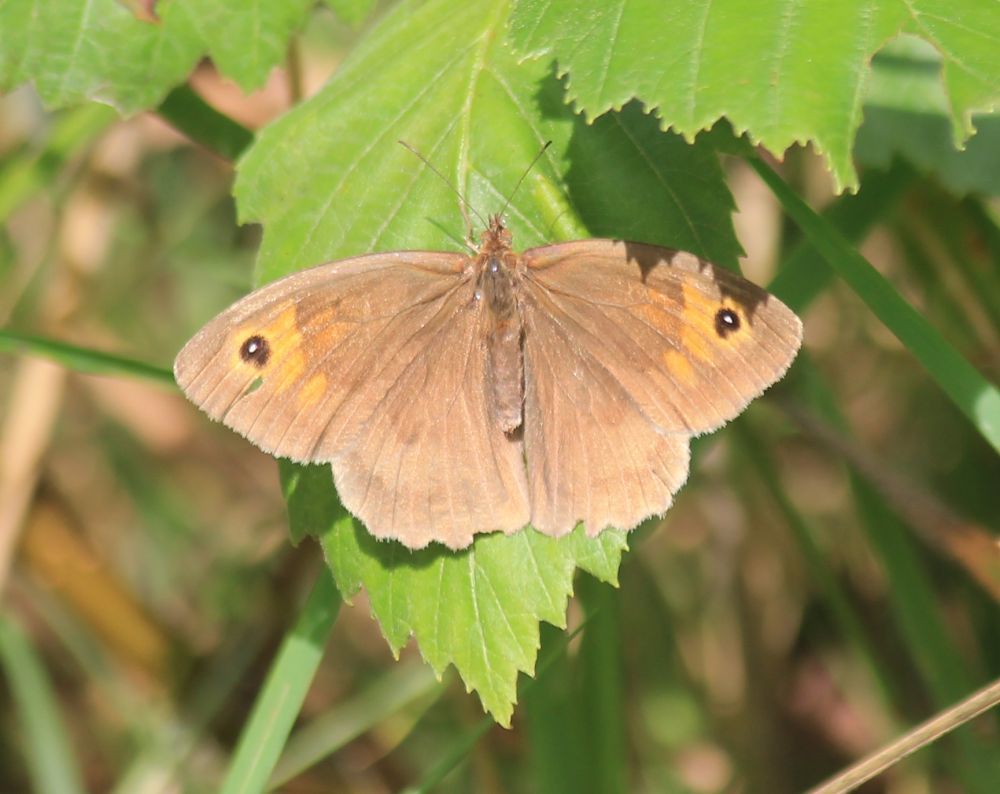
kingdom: Animalia
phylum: Arthropoda
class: Insecta
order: Lepidoptera
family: Nymphalidae
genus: Maniola
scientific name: Maniola jurtina
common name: Meadow brown
